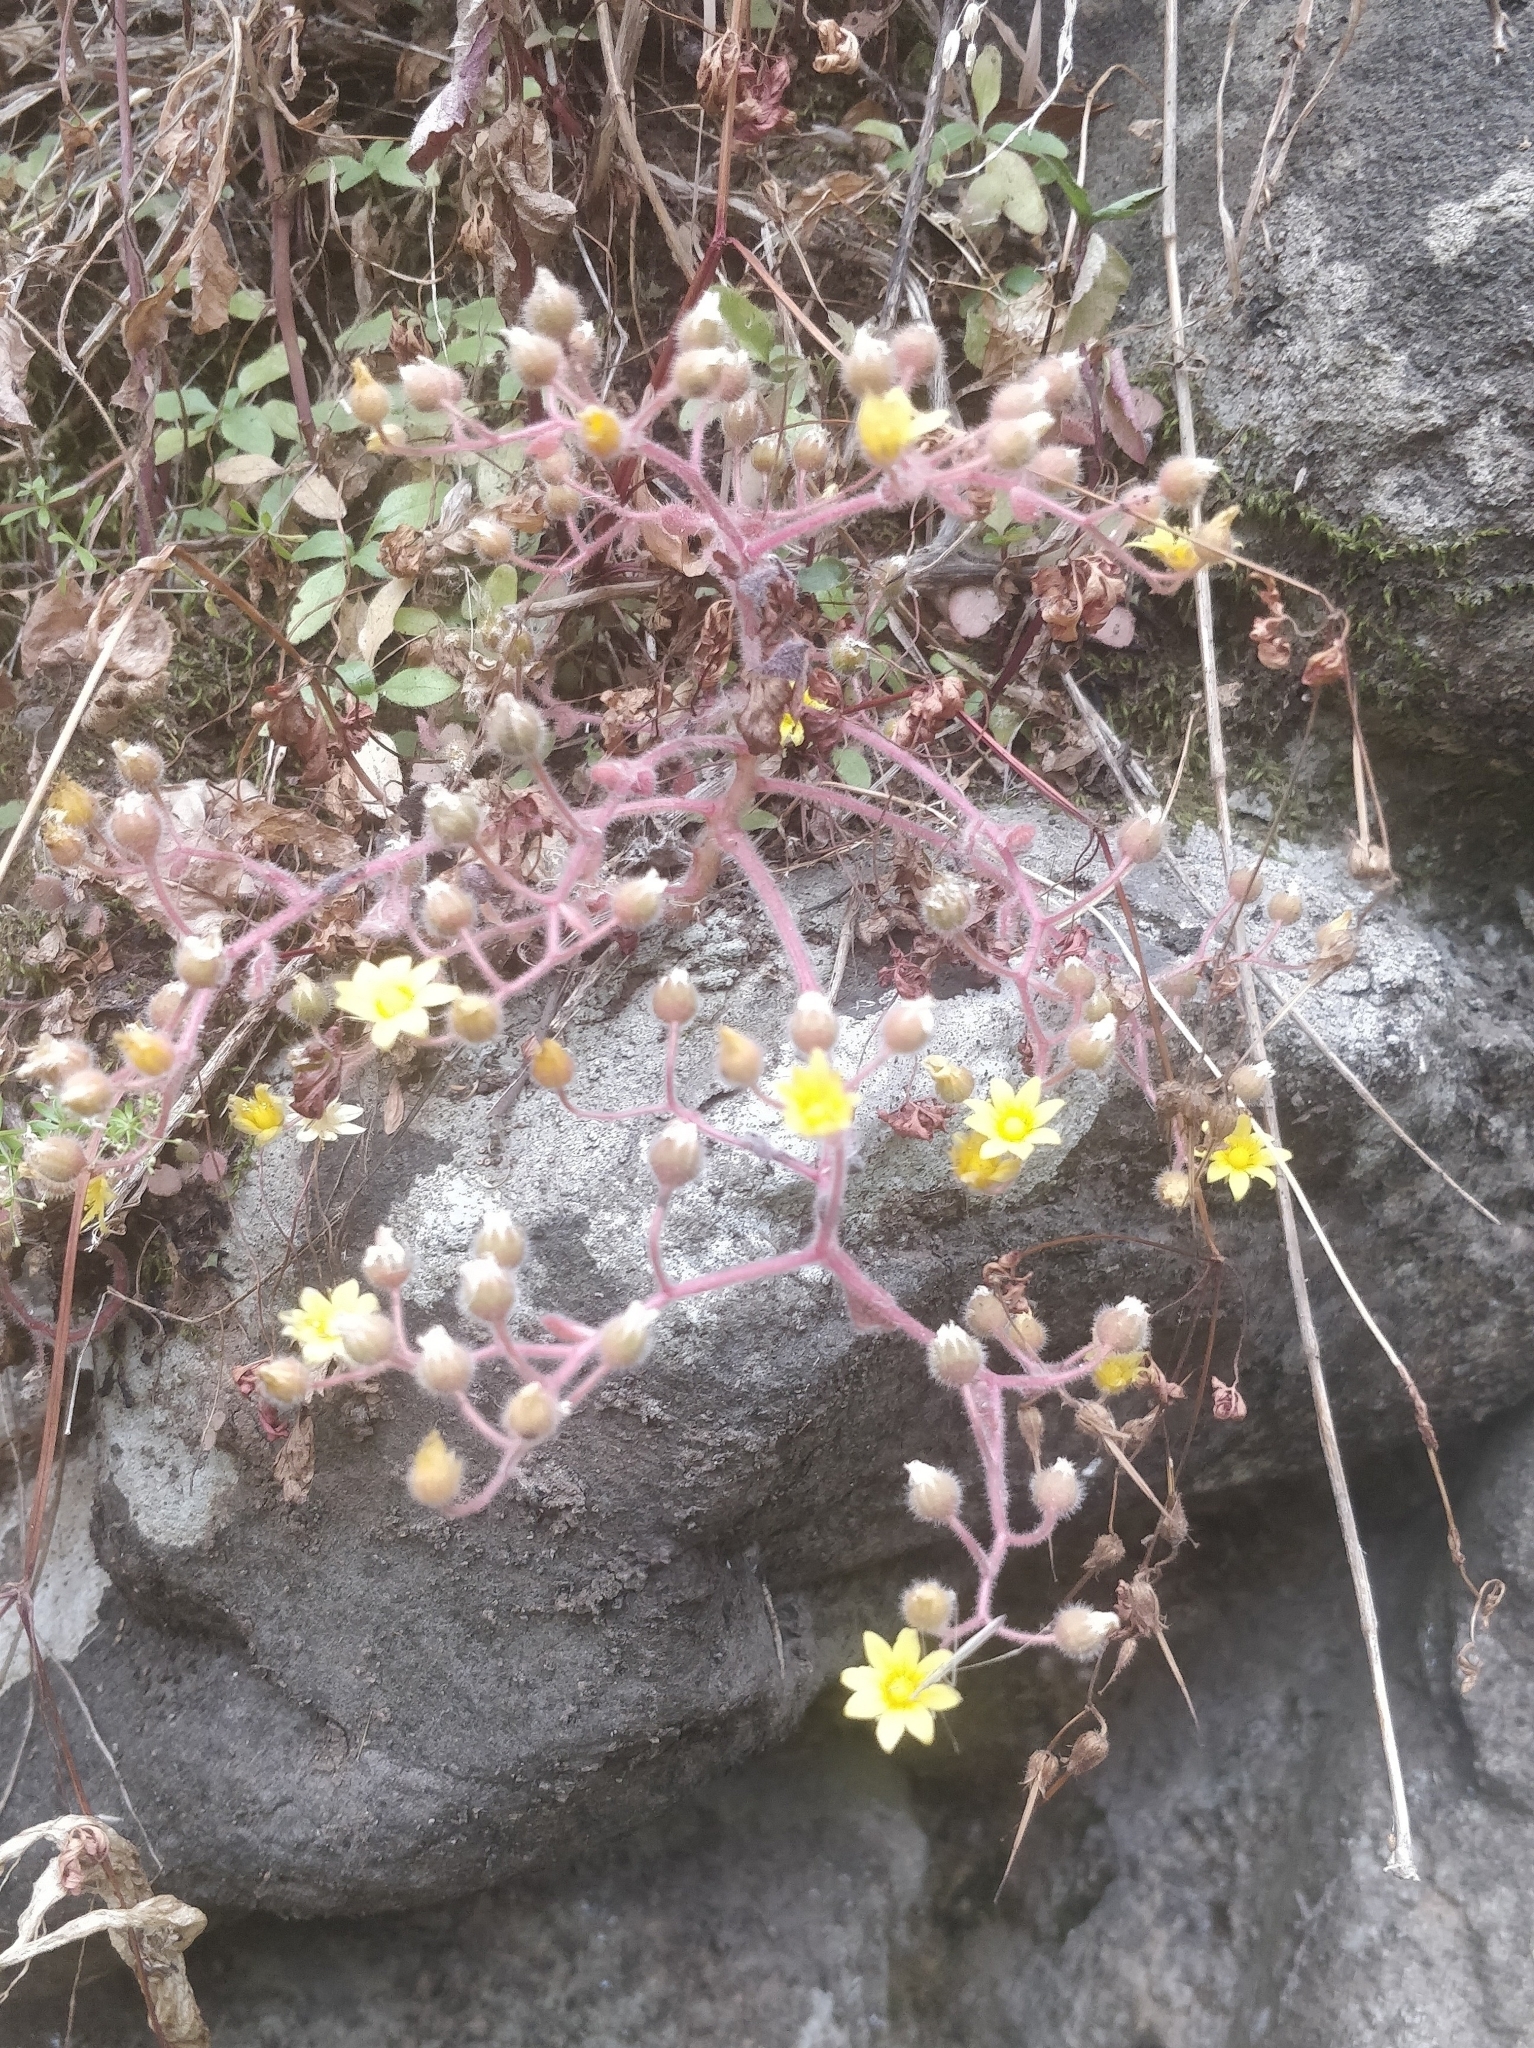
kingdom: Plantae
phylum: Tracheophyta
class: Magnoliopsida
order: Saxifragales
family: Crassulaceae
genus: Aichryson
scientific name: Aichryson villosum
